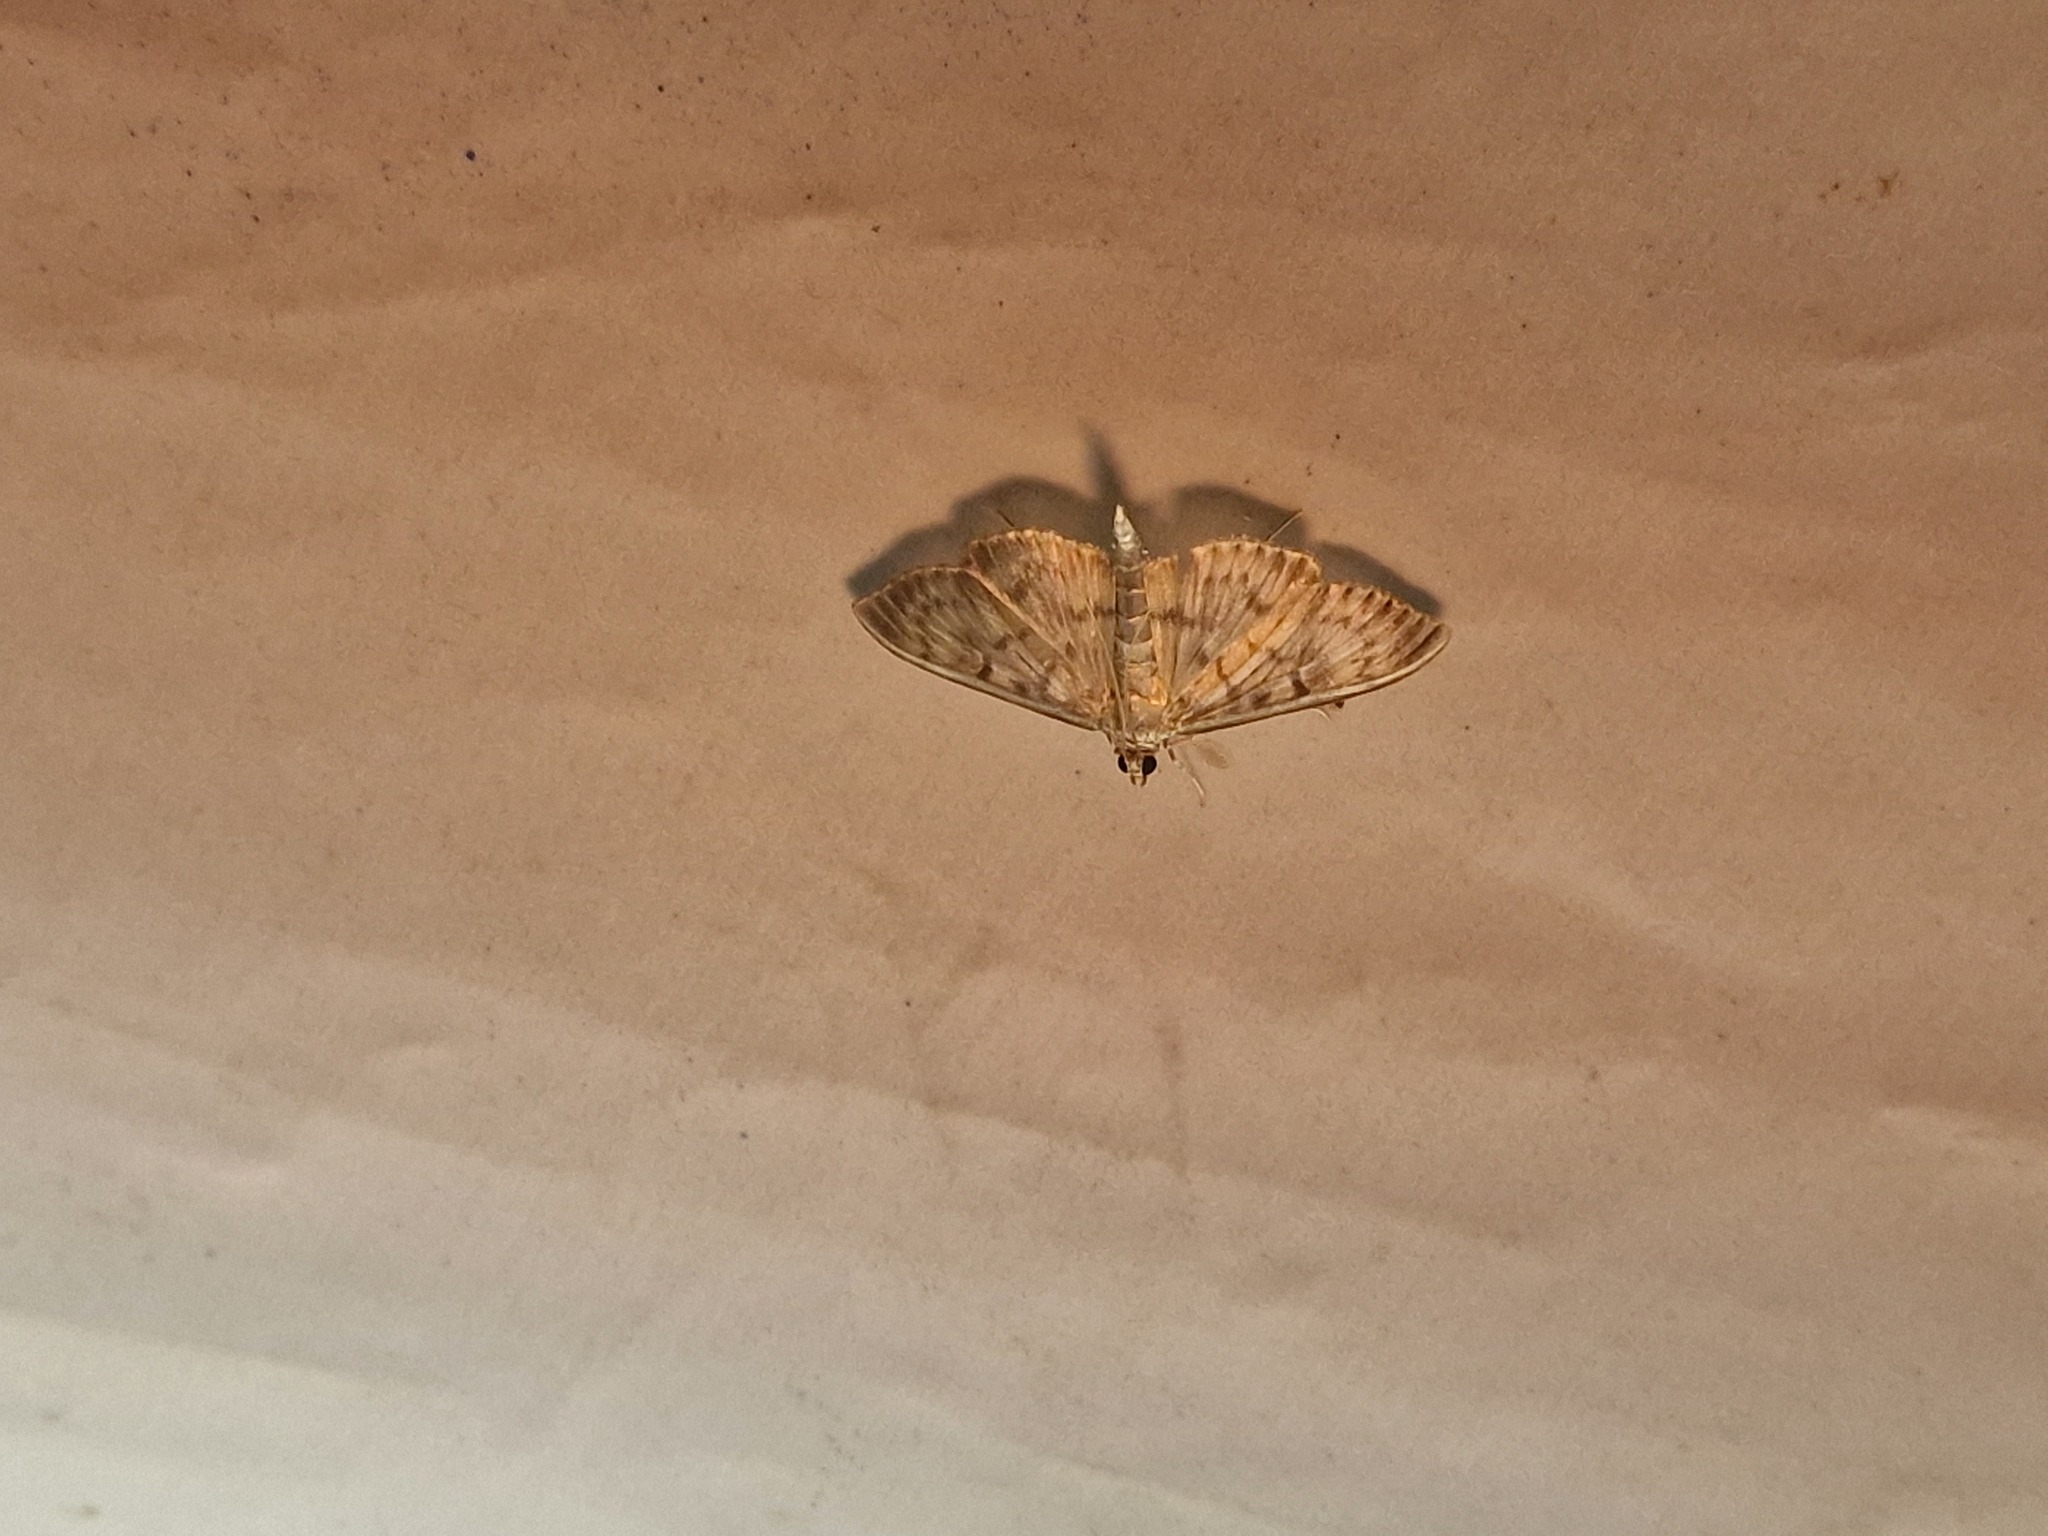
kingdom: Animalia
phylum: Arthropoda
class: Insecta
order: Lepidoptera
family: Crambidae
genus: Patania
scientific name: Patania ruralis
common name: Mother of pearl
